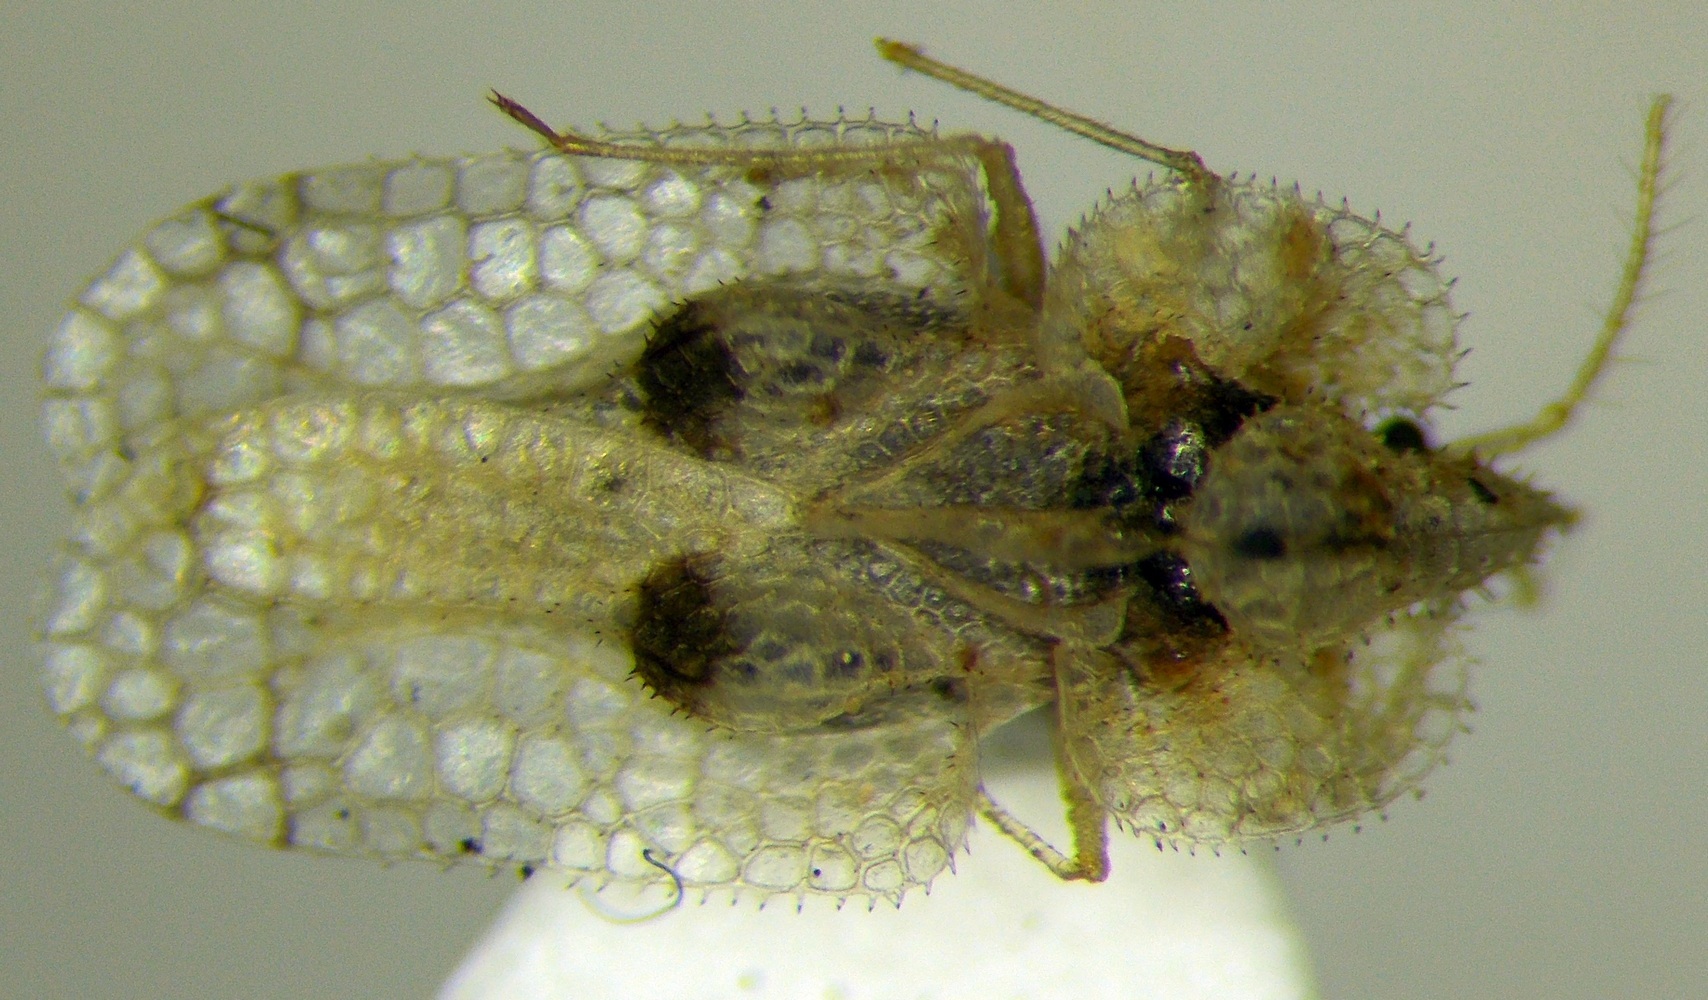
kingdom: Animalia
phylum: Arthropoda
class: Insecta
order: Hemiptera
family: Tingidae
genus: Corythucha
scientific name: Corythucha ciliata
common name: Sycamore lace bug
